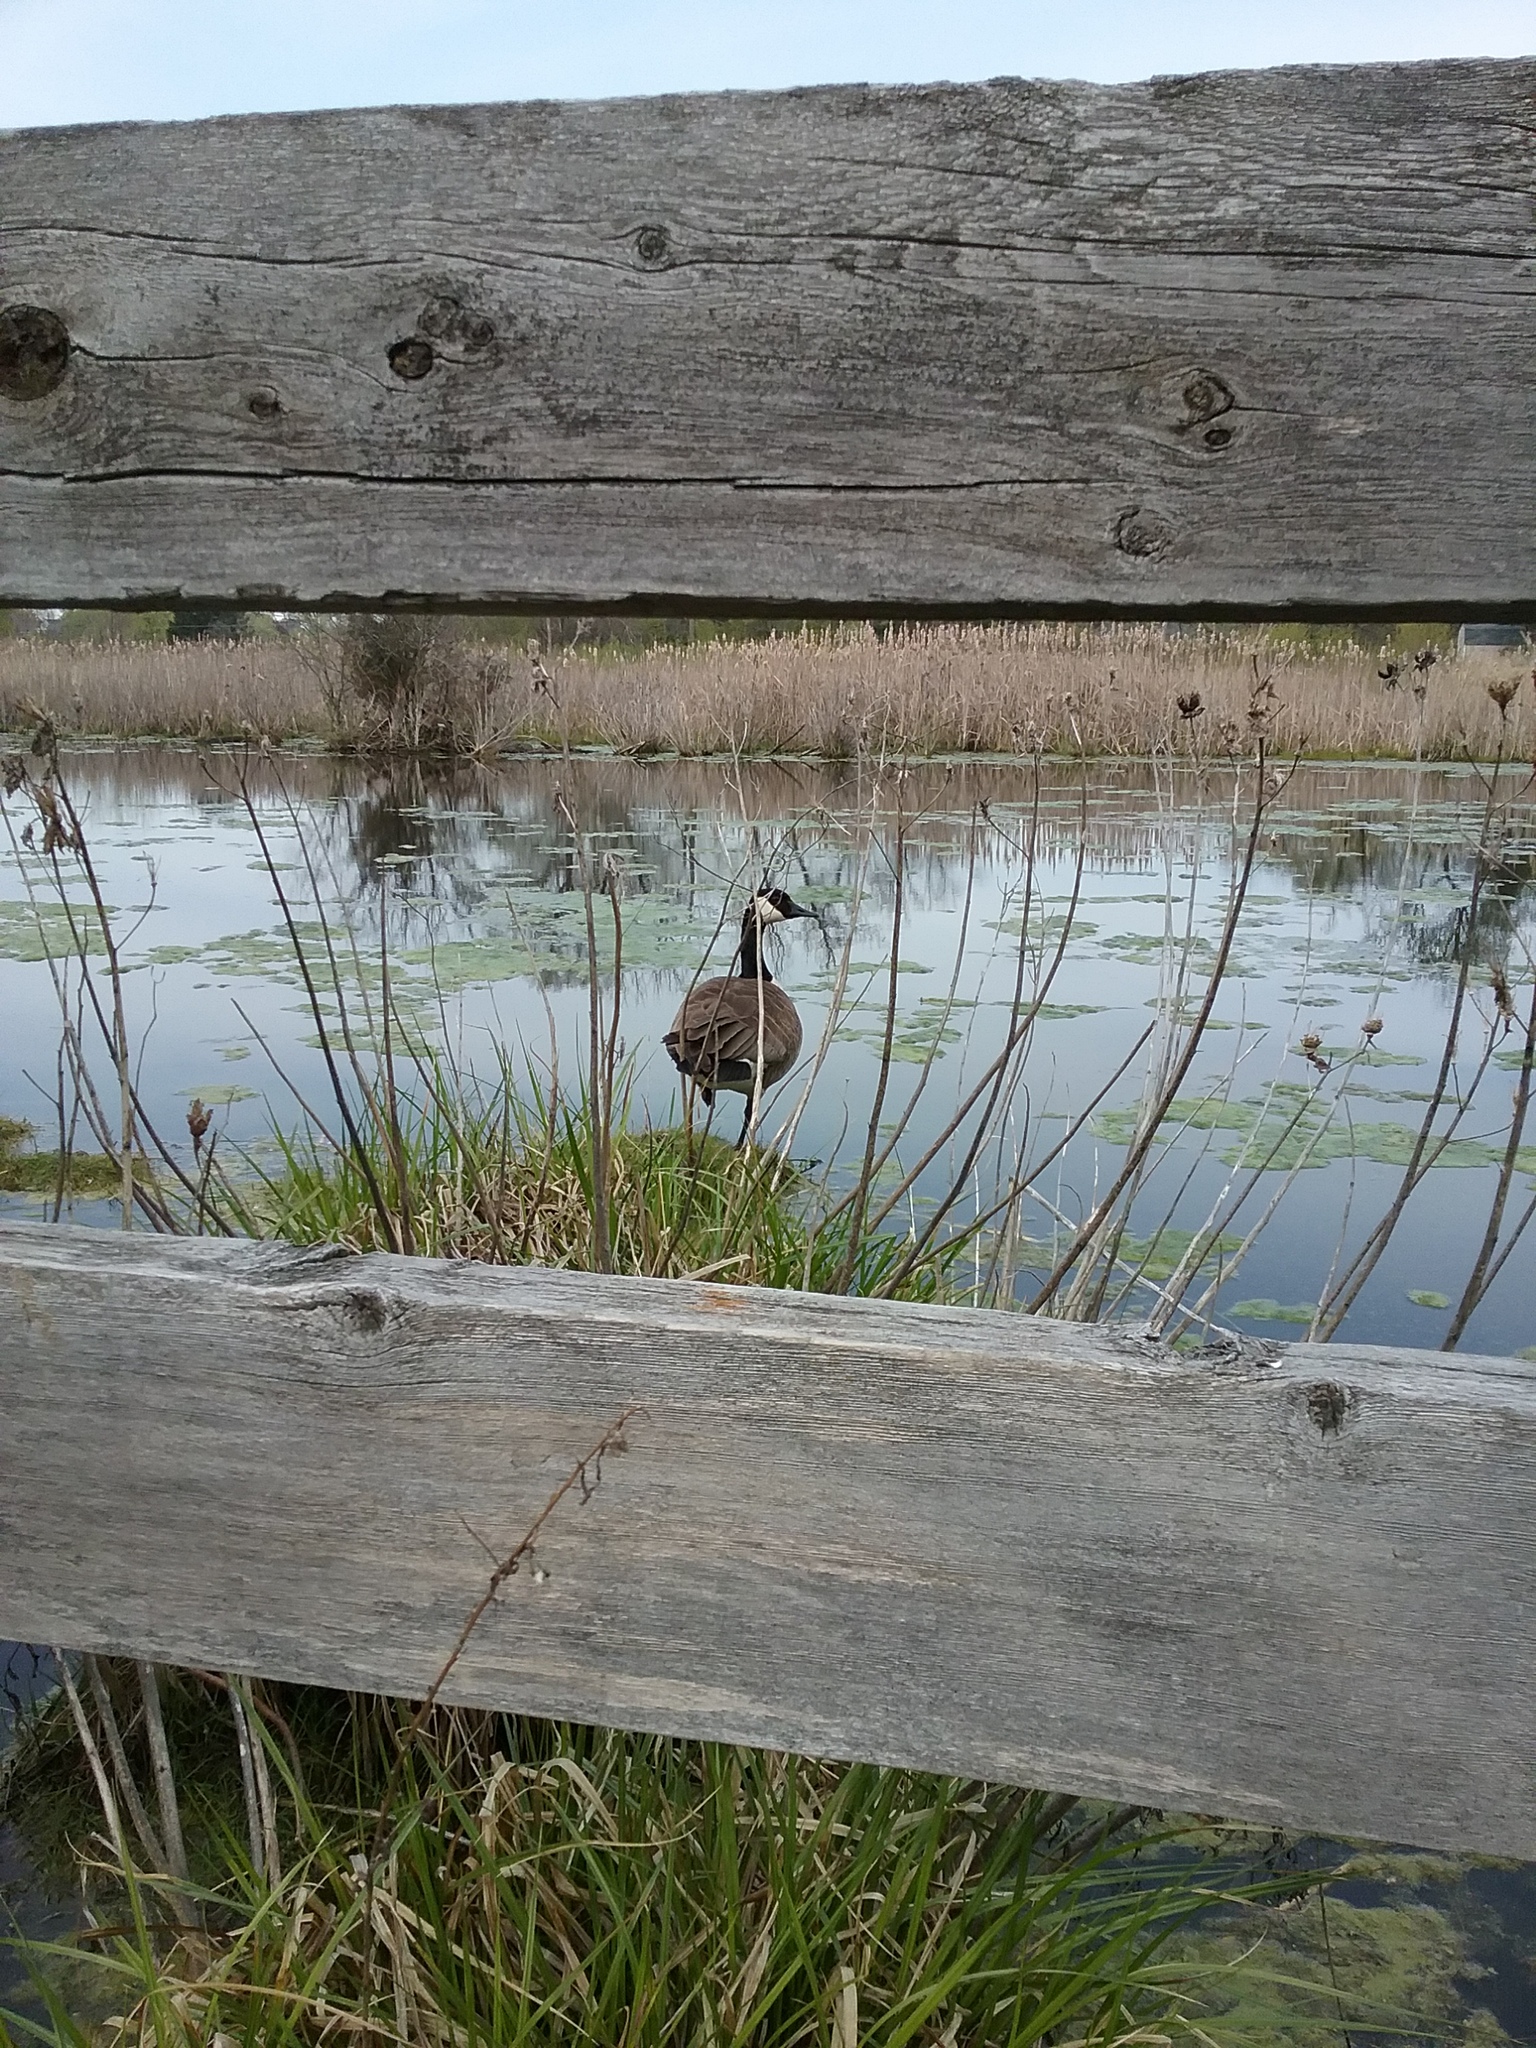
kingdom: Animalia
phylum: Chordata
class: Aves
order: Anseriformes
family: Anatidae
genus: Branta
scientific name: Branta canadensis
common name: Canada goose
